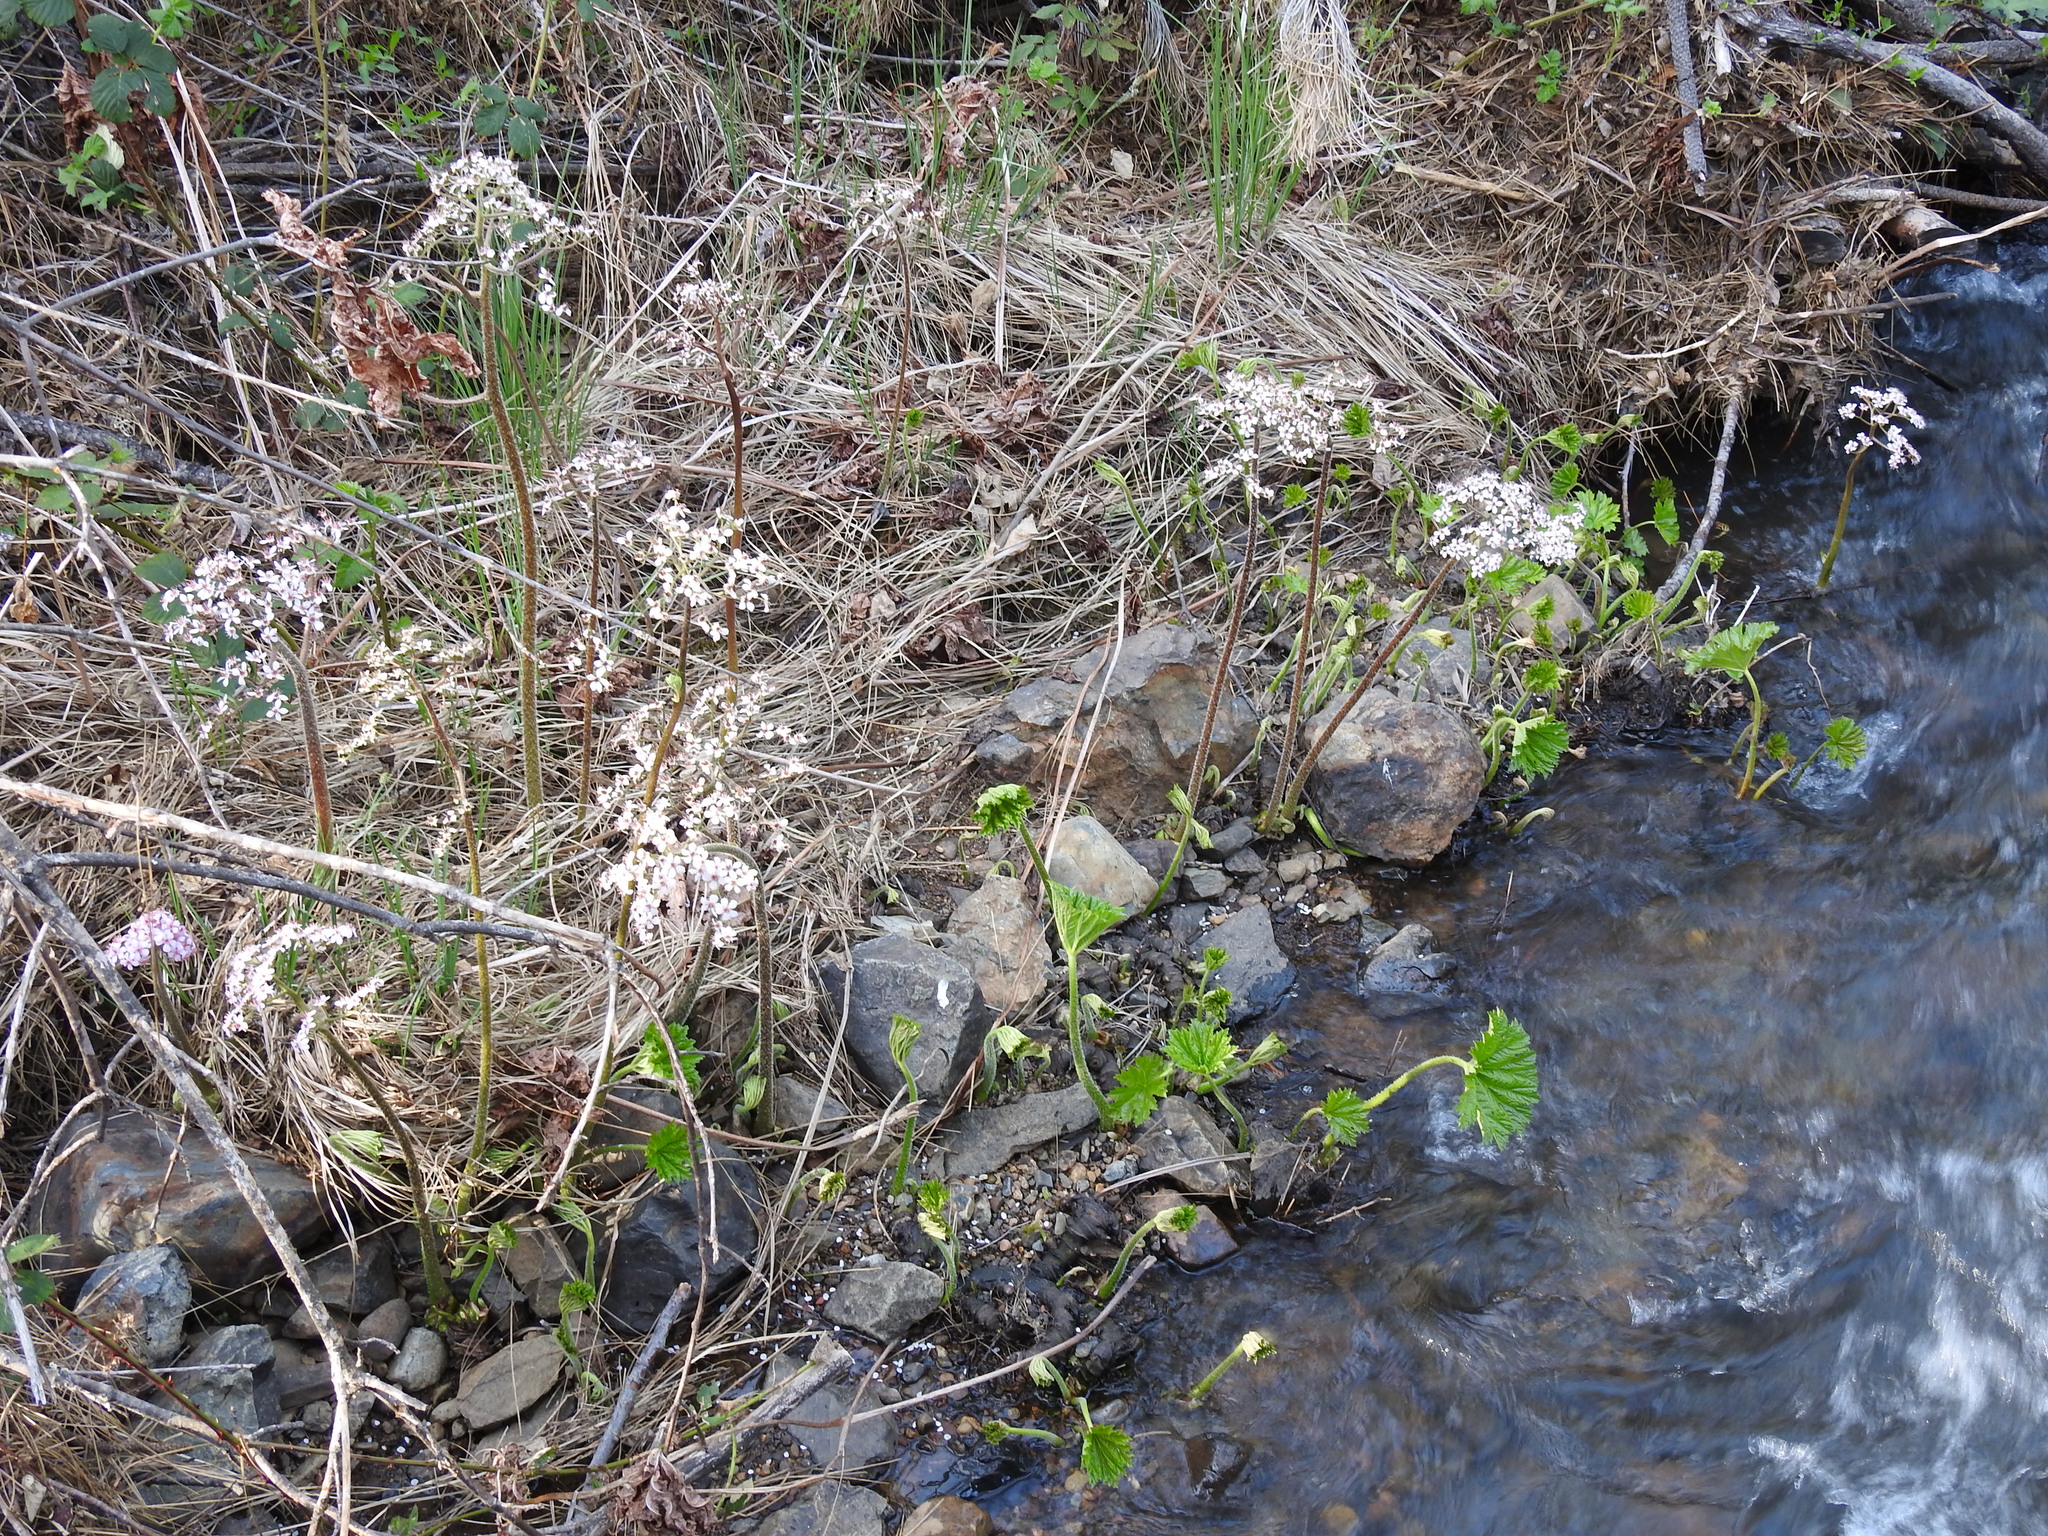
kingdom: Plantae
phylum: Tracheophyta
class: Magnoliopsida
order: Saxifragales
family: Saxifragaceae
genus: Darmera
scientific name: Darmera peltata
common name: Indian-rhubarb
